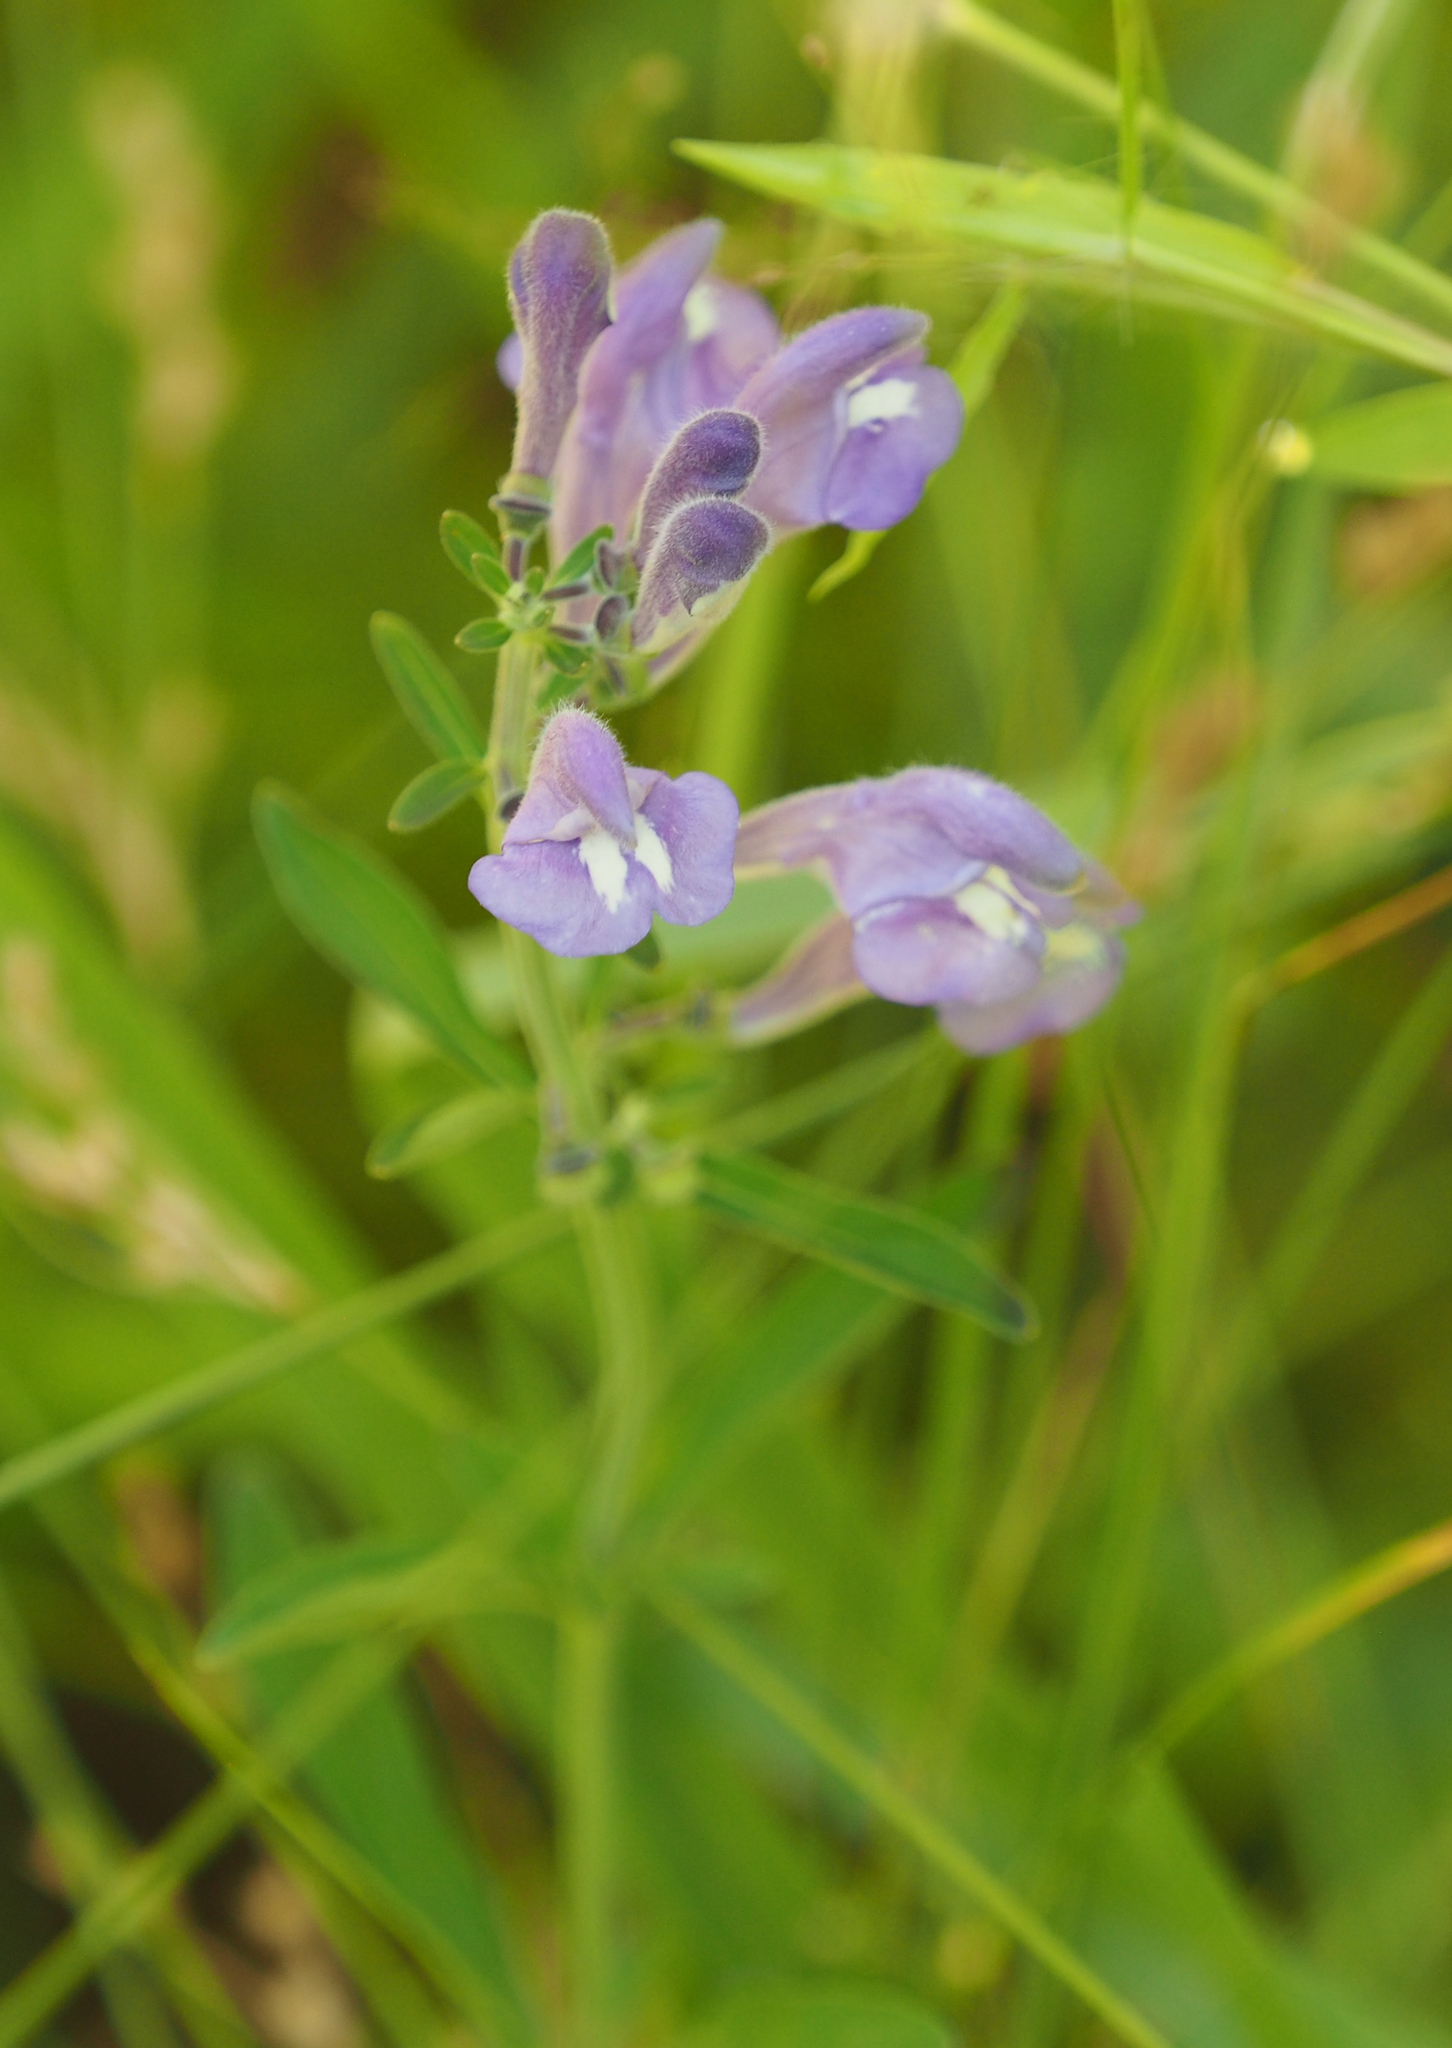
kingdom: Plantae
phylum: Tracheophyta
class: Magnoliopsida
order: Lamiales
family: Lamiaceae
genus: Scutellaria
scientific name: Scutellaria integrifolia
